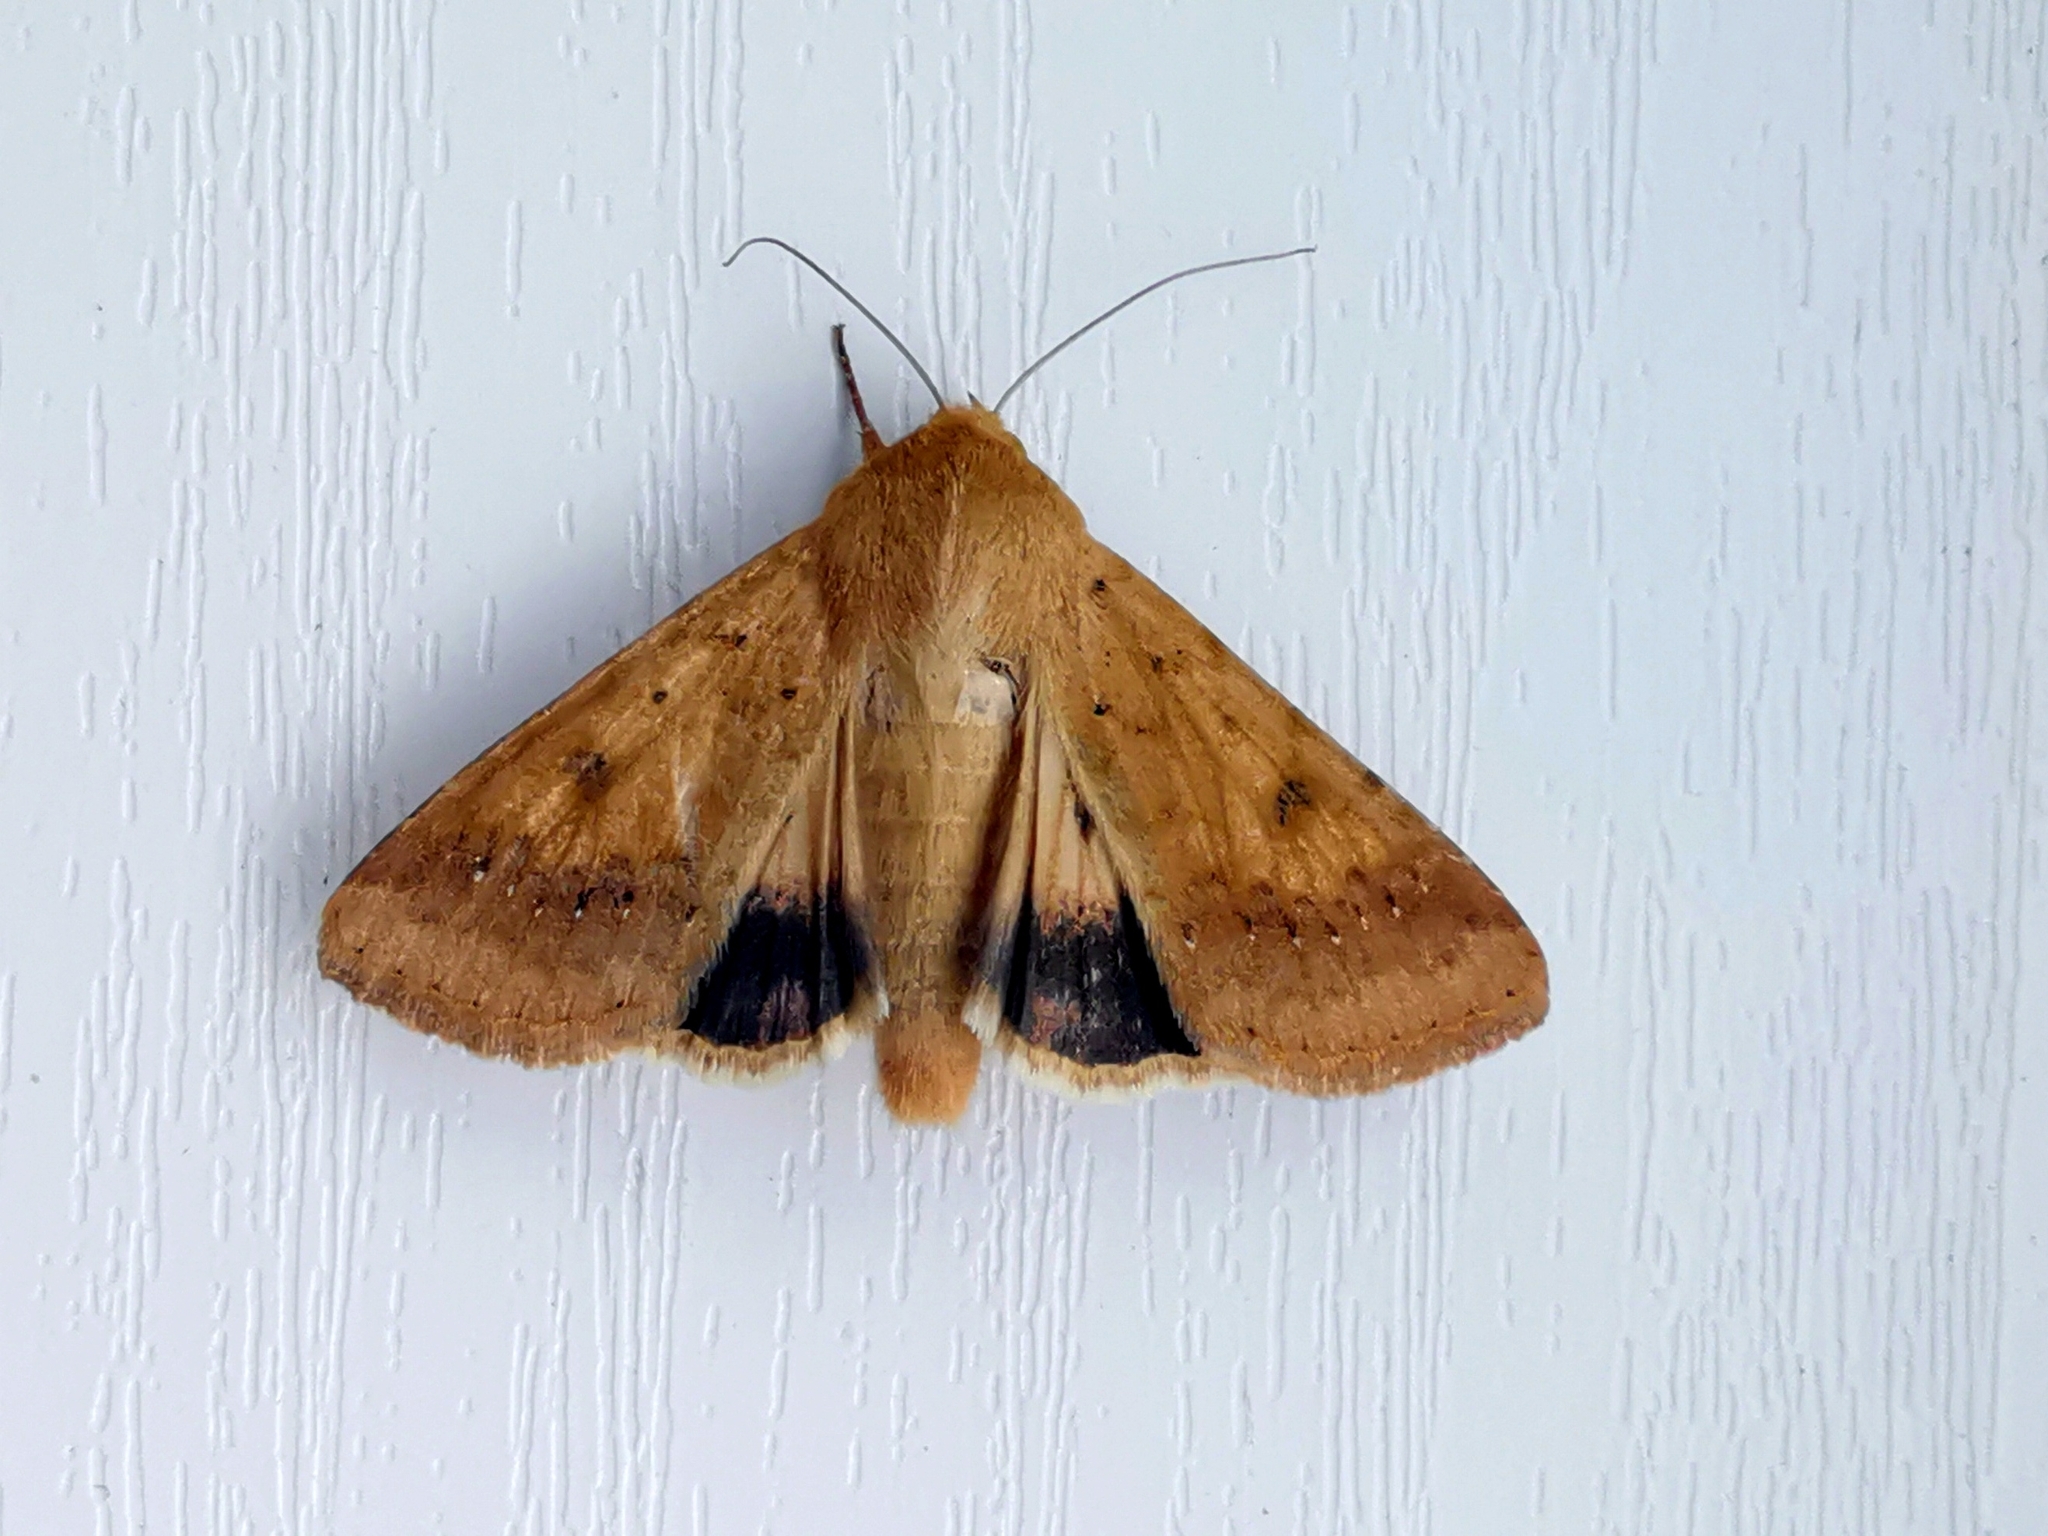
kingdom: Animalia
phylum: Arthropoda
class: Insecta
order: Lepidoptera
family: Noctuidae
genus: Helicoverpa
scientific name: Helicoverpa armigera
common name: Cotton bollworm
